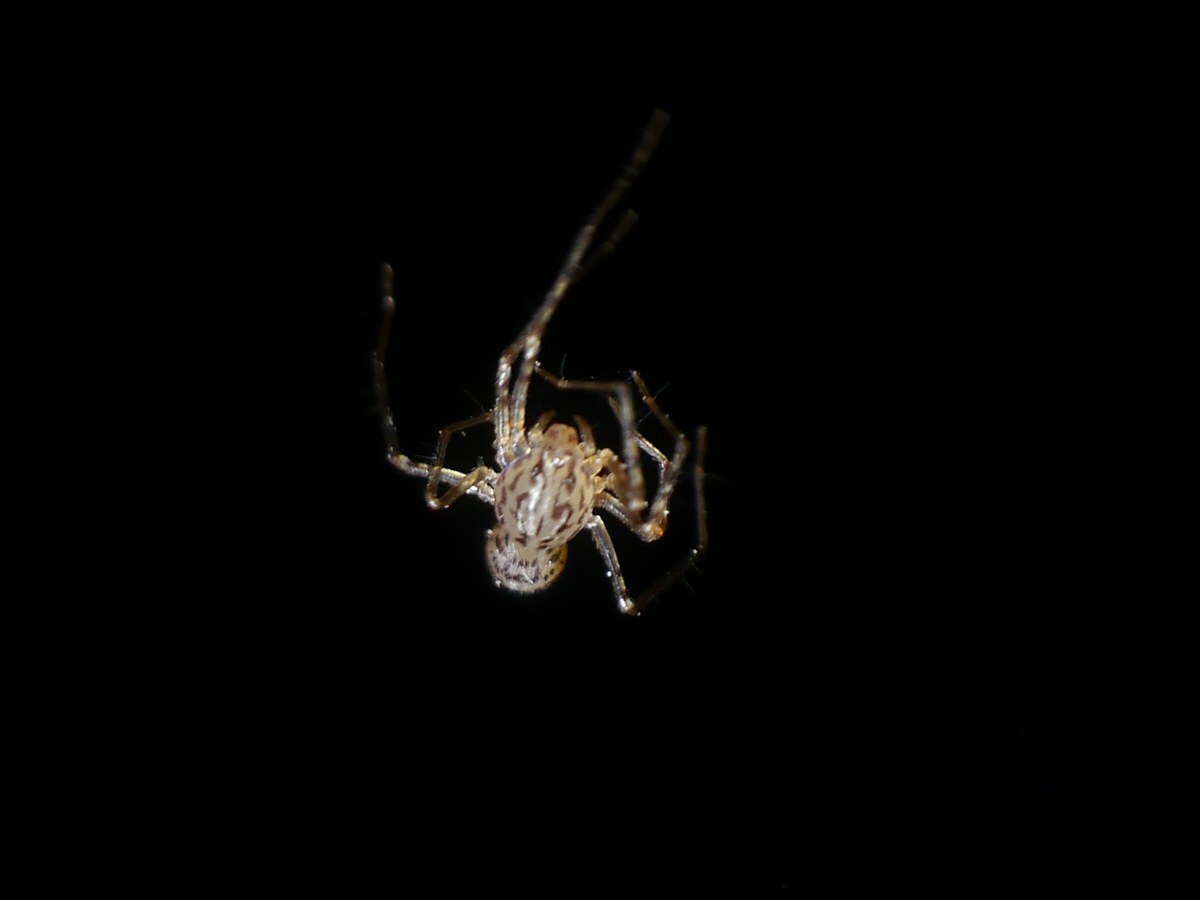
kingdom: Animalia
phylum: Arthropoda
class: Arachnida
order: Araneae
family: Scytodidae
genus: Scytodes
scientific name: Scytodes thoracica
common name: Spitting spider
